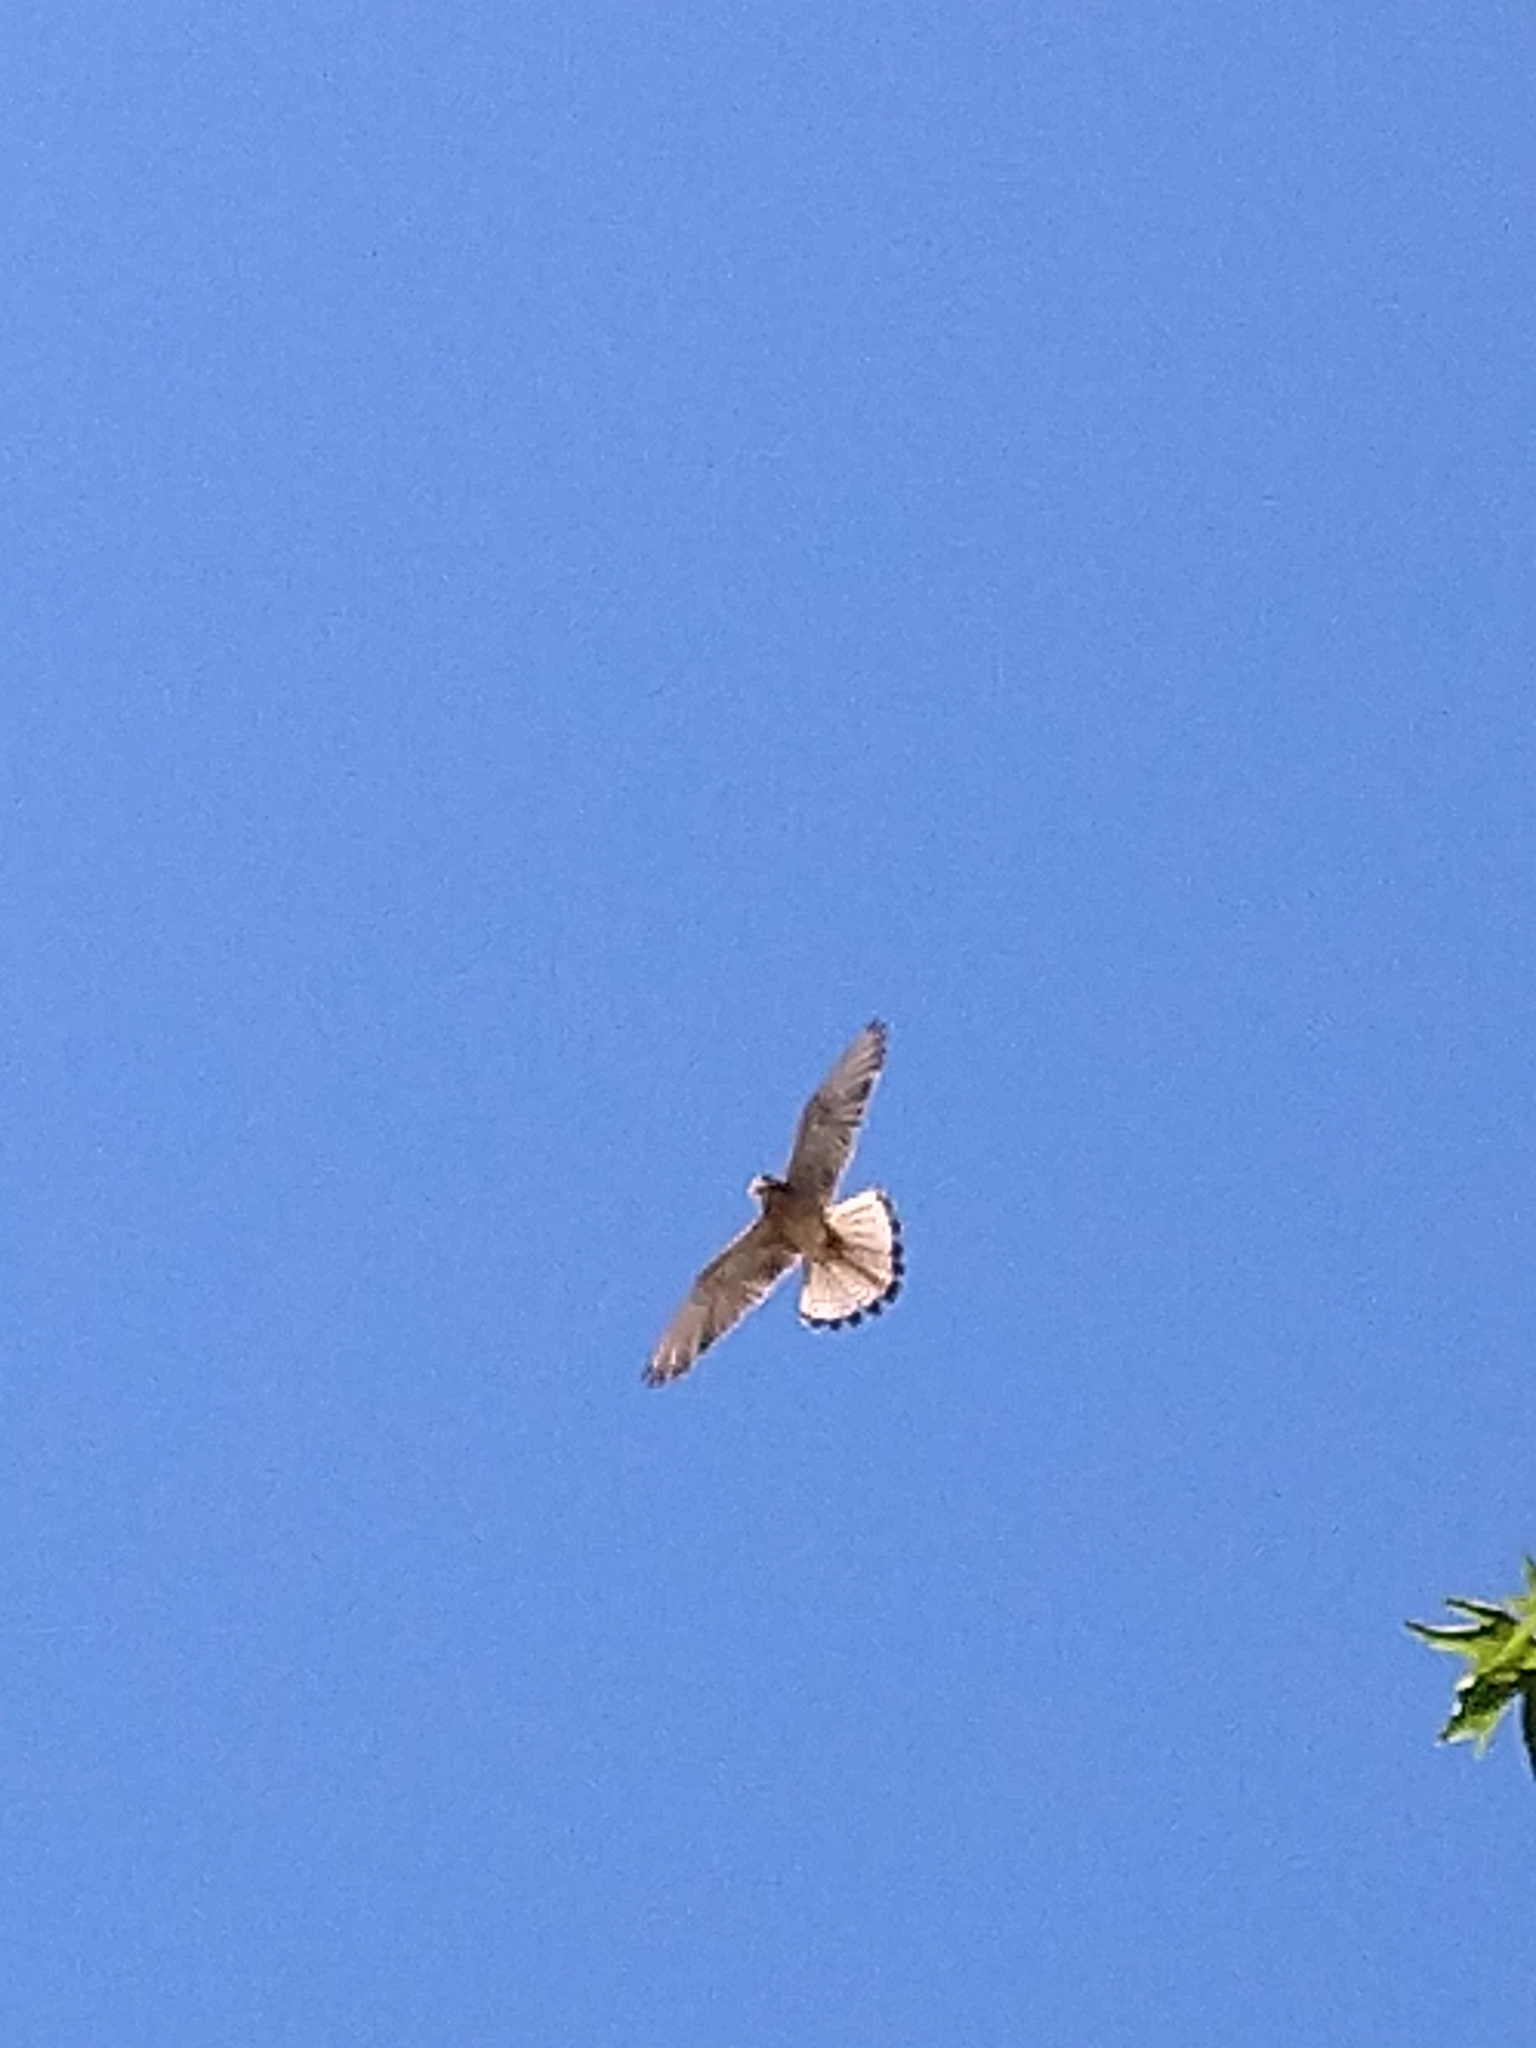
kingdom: Animalia
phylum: Chordata
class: Aves
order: Falconiformes
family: Falconidae
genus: Falco
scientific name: Falco naumanni
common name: Lesser kestrel
